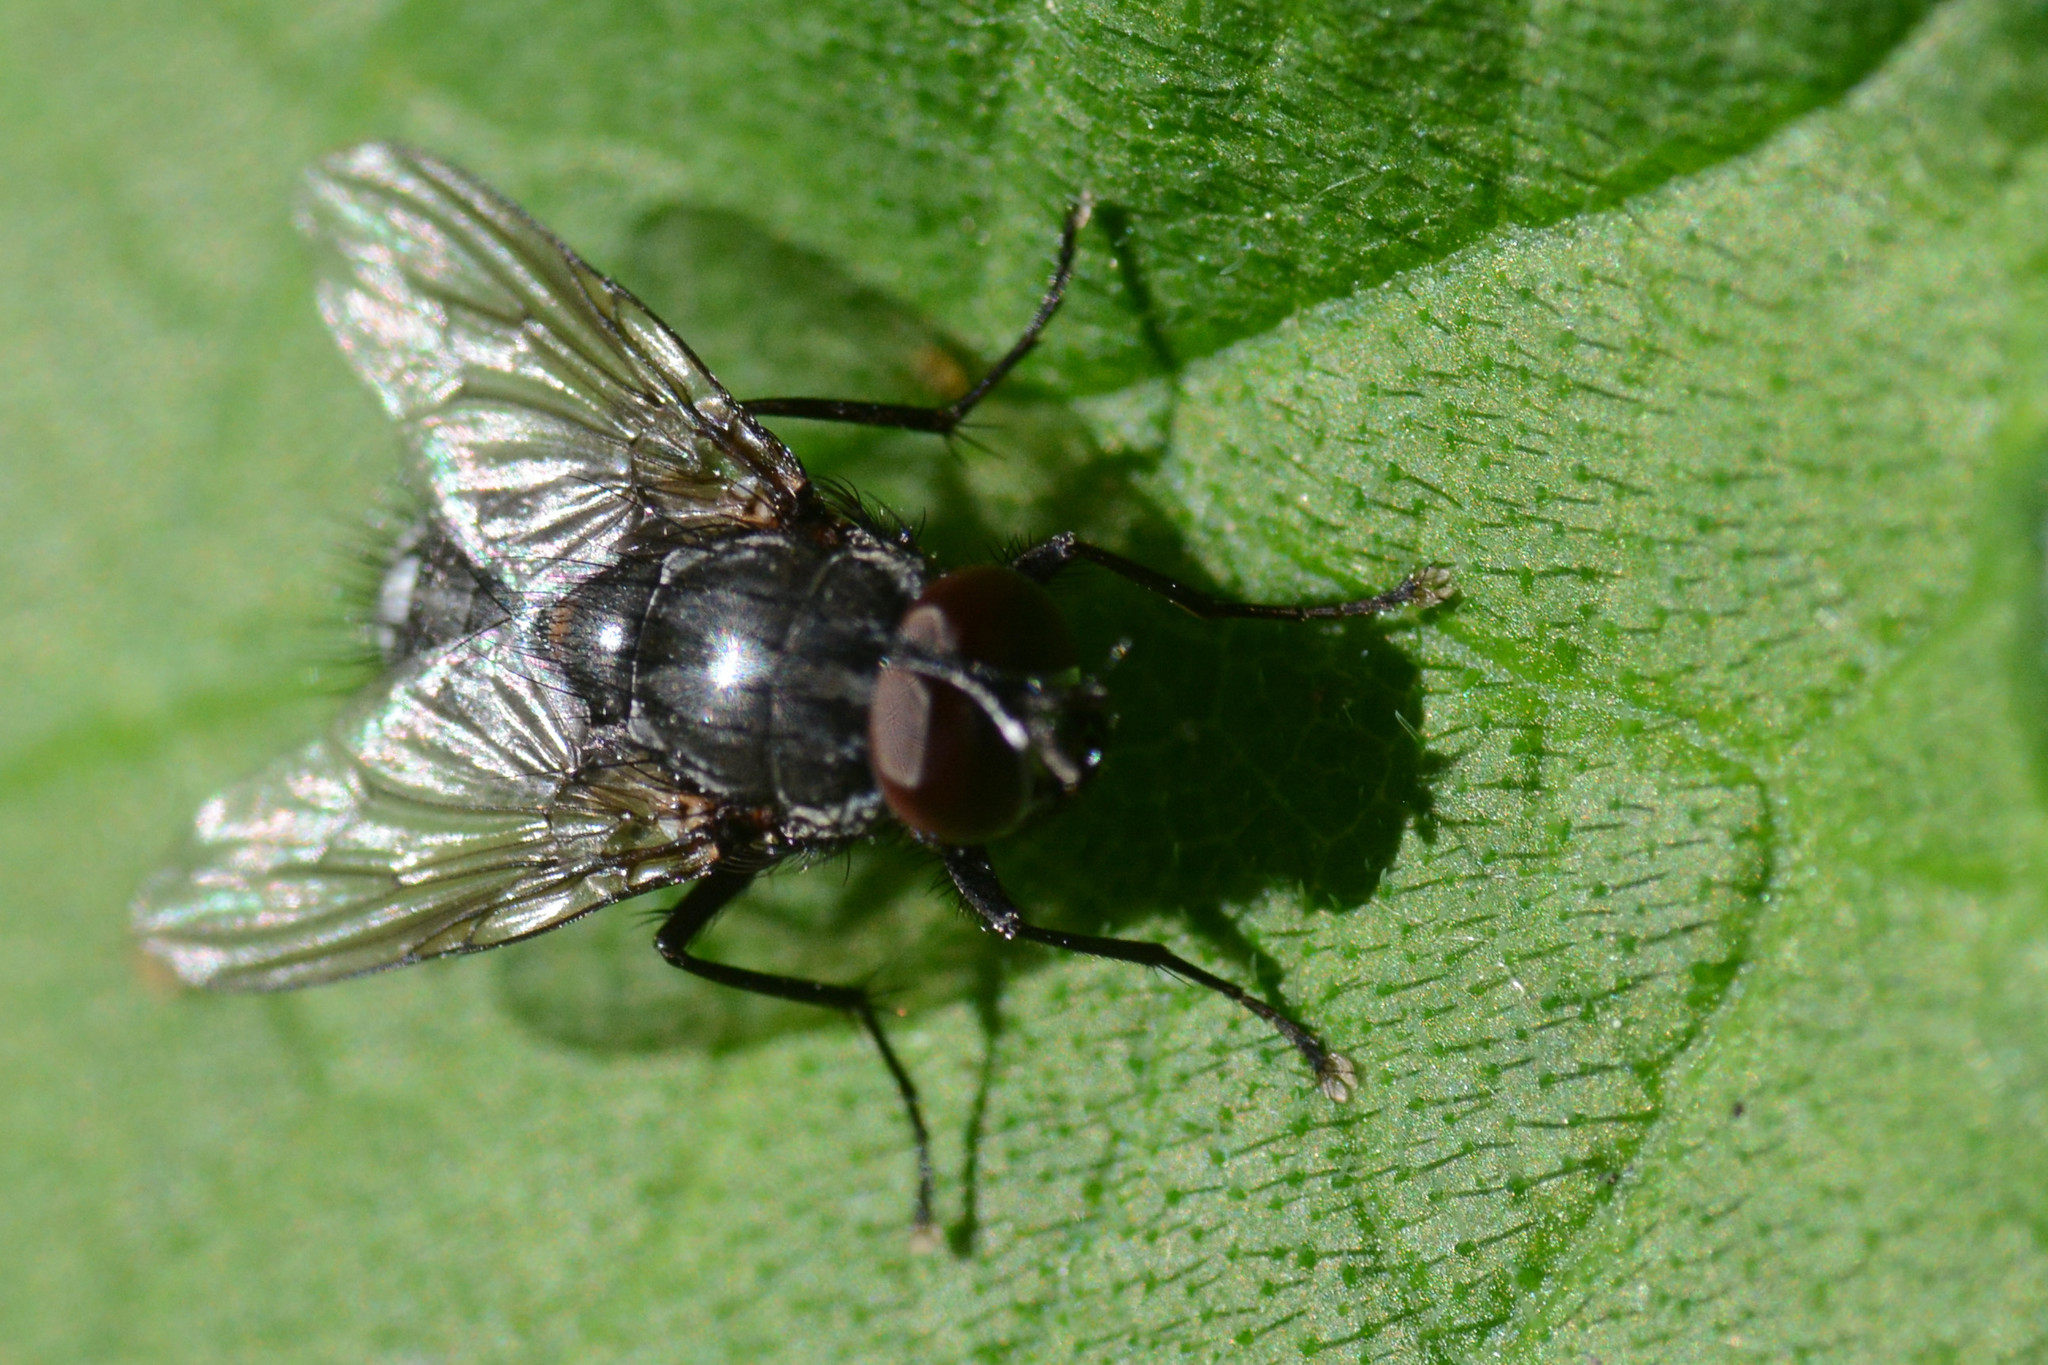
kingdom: Animalia
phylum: Arthropoda
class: Insecta
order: Diptera
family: Muscidae
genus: Muscina
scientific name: Muscina levida
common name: House fly
